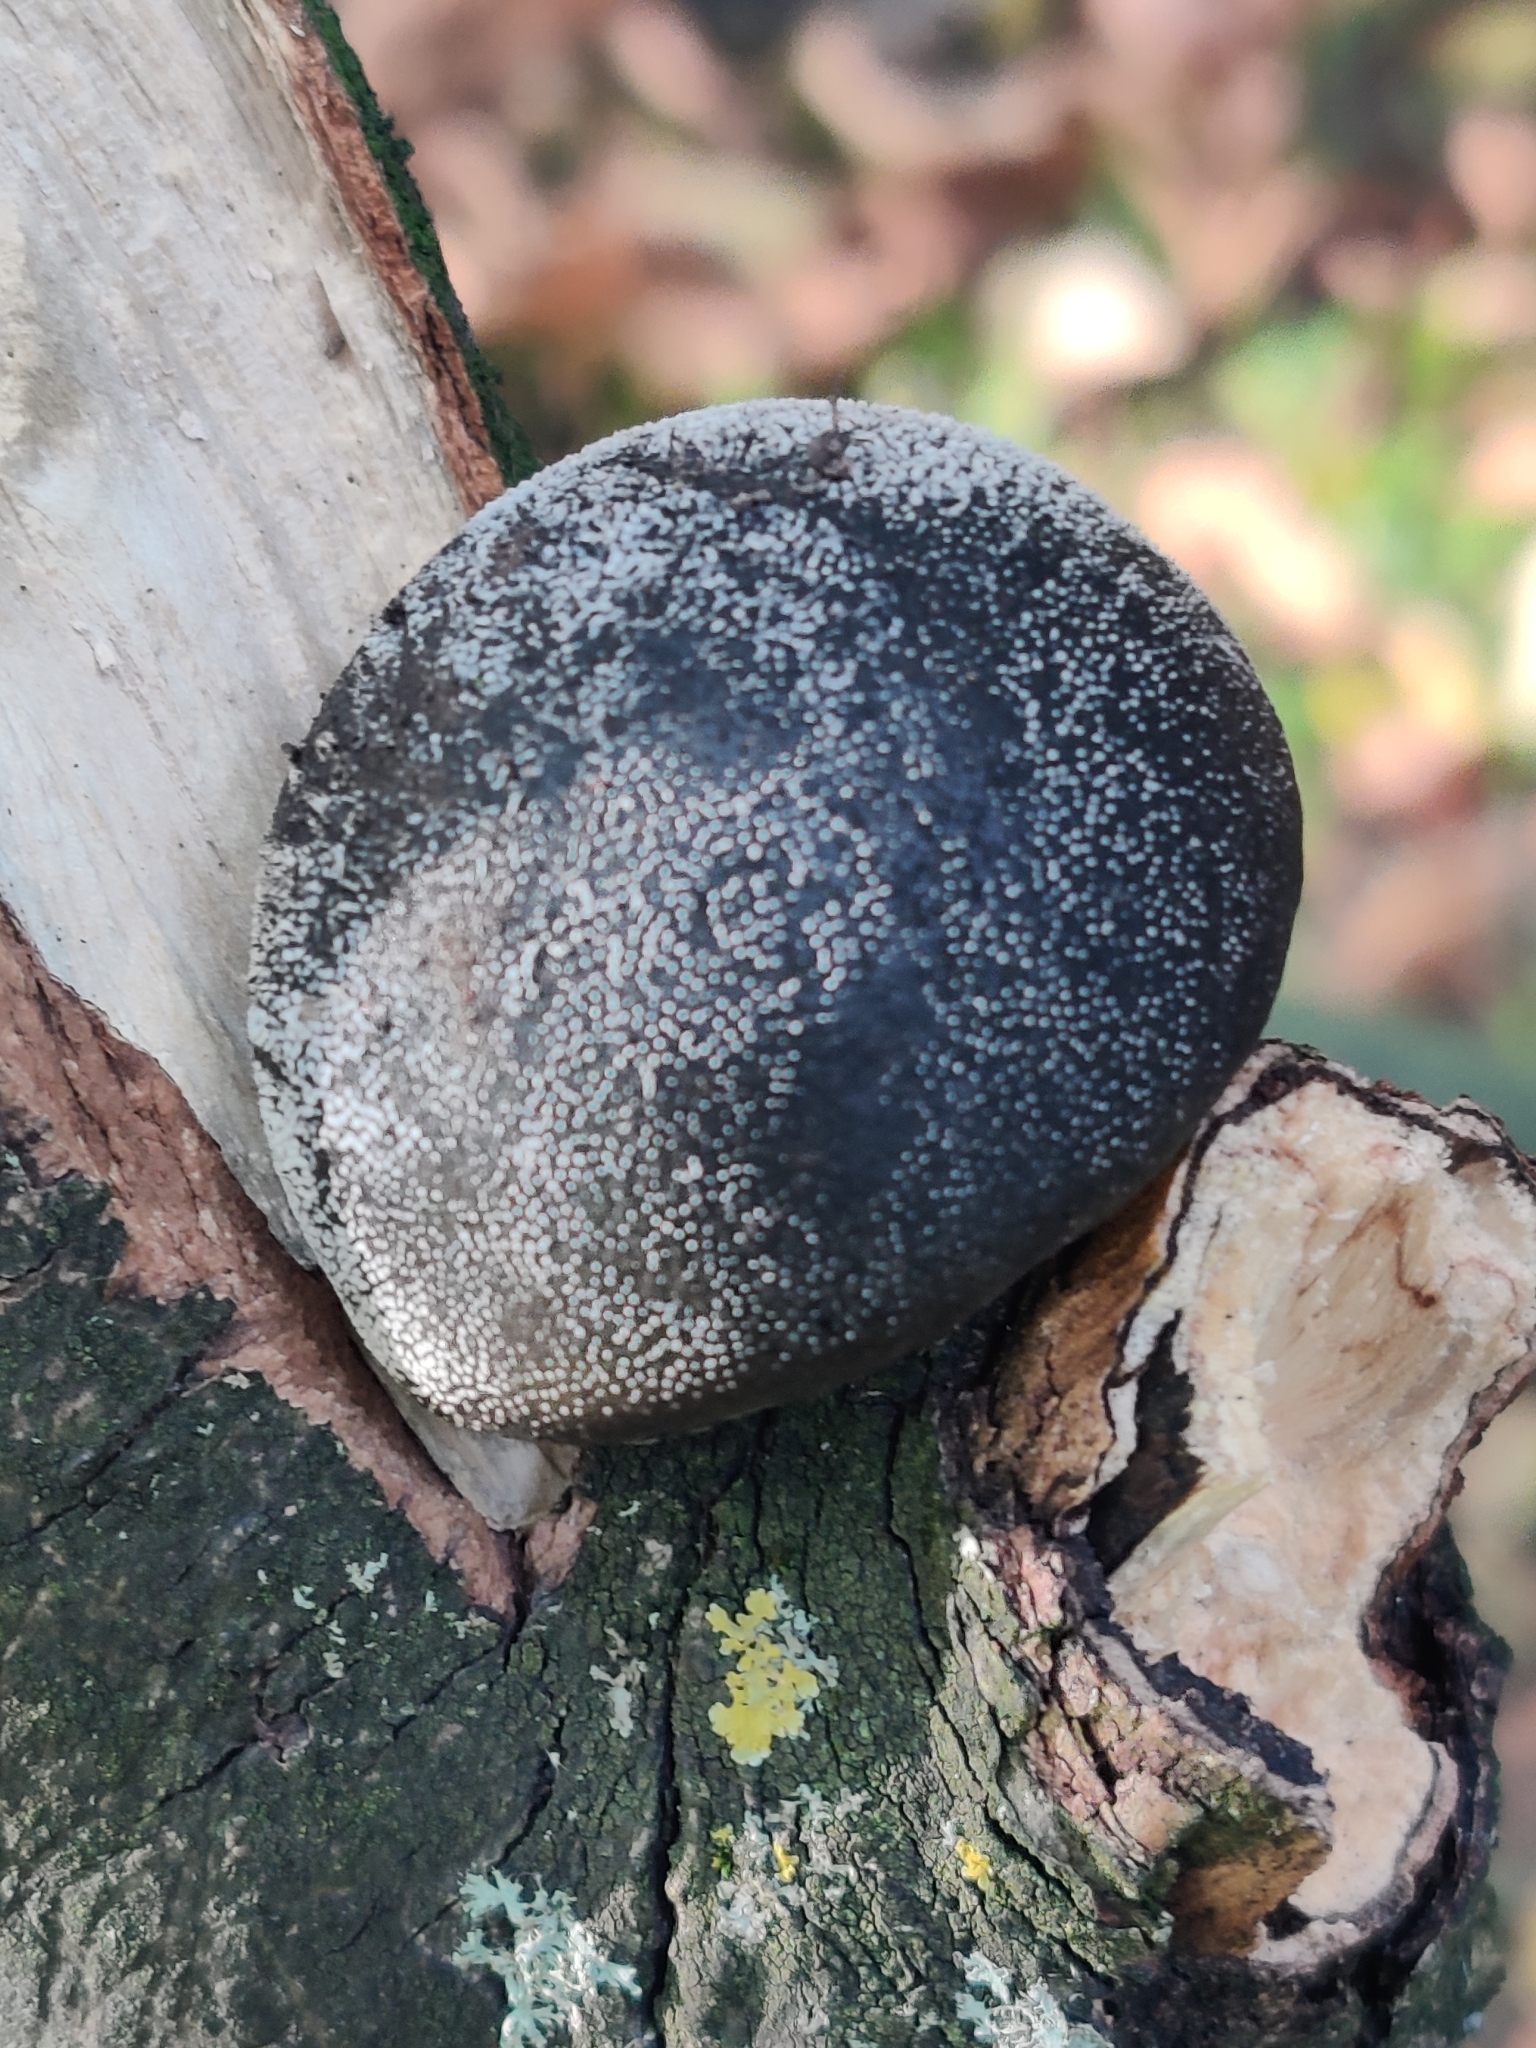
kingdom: Fungi
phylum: Ascomycota
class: Sordariomycetes
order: Xylariales
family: Hypoxylaceae
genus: Daldinia
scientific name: Daldinia concentrica
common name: Cramp balls
